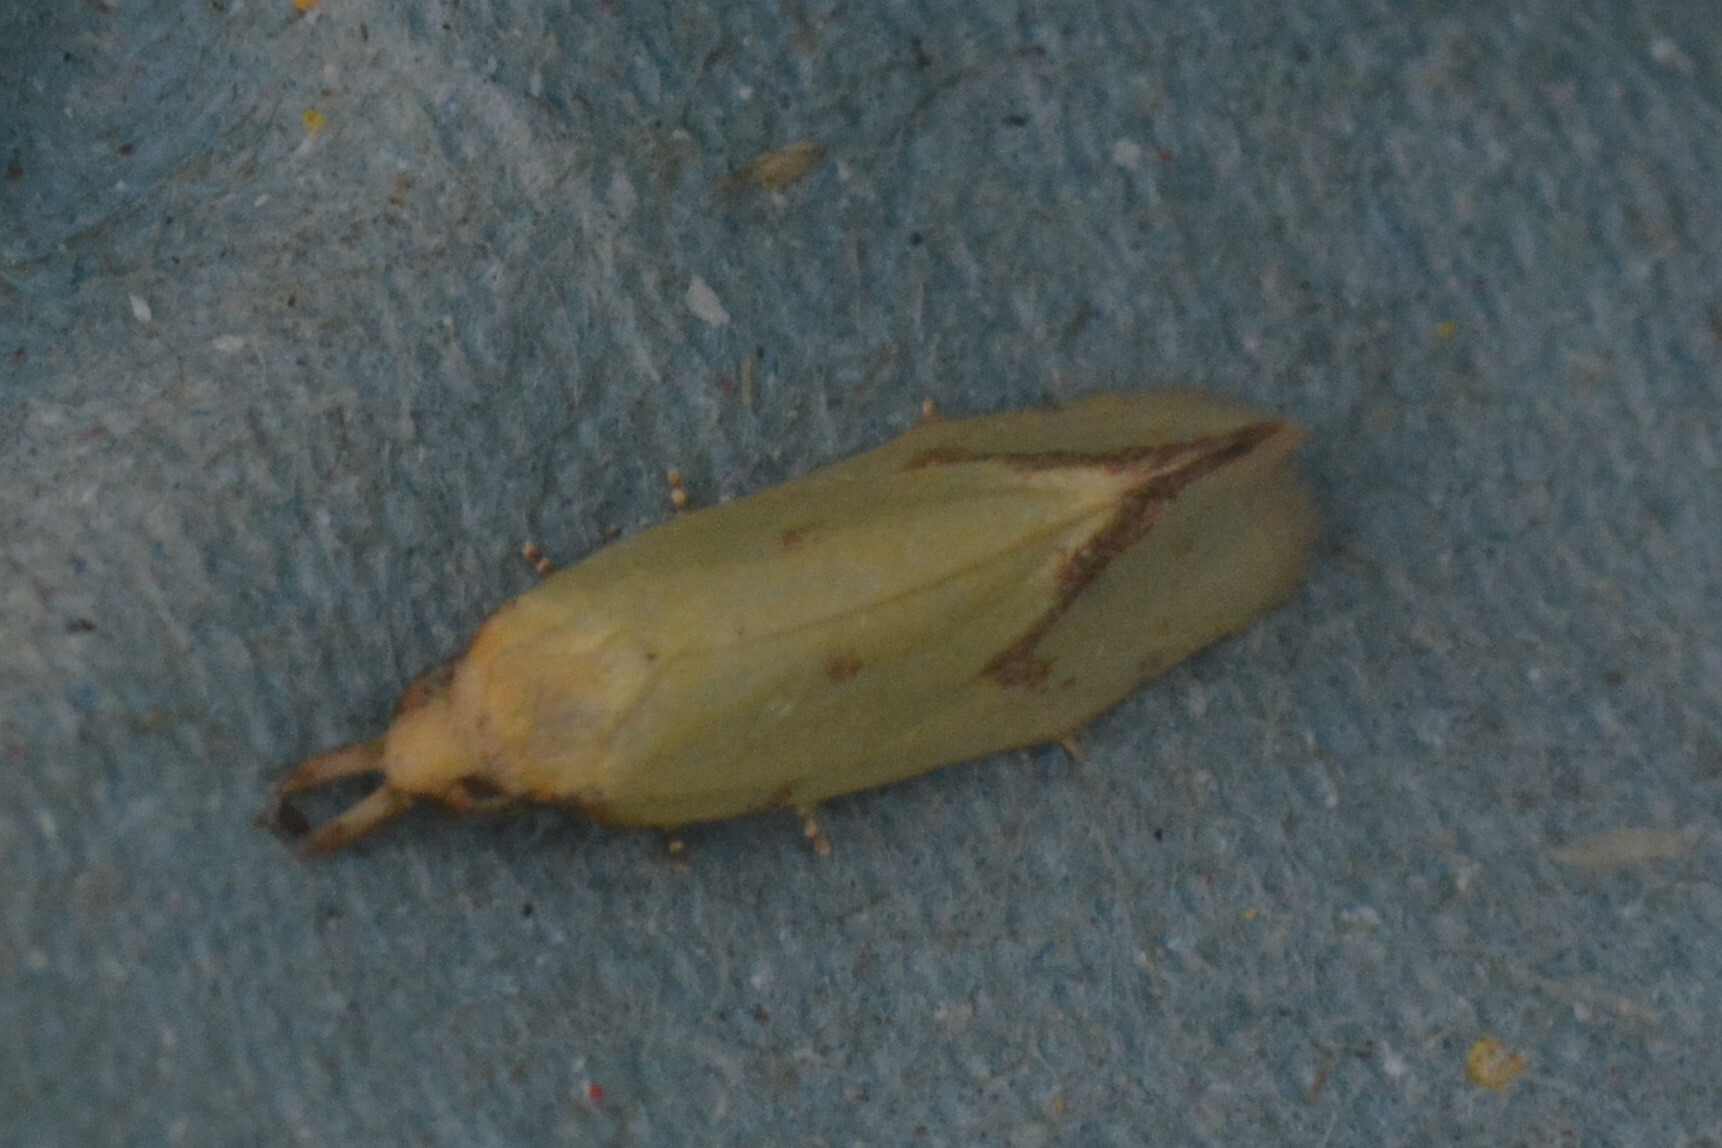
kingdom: Animalia
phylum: Arthropoda
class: Insecta
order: Lepidoptera
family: Tortricidae
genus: Agapeta
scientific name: Agapeta hamana
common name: Common yellow conch
